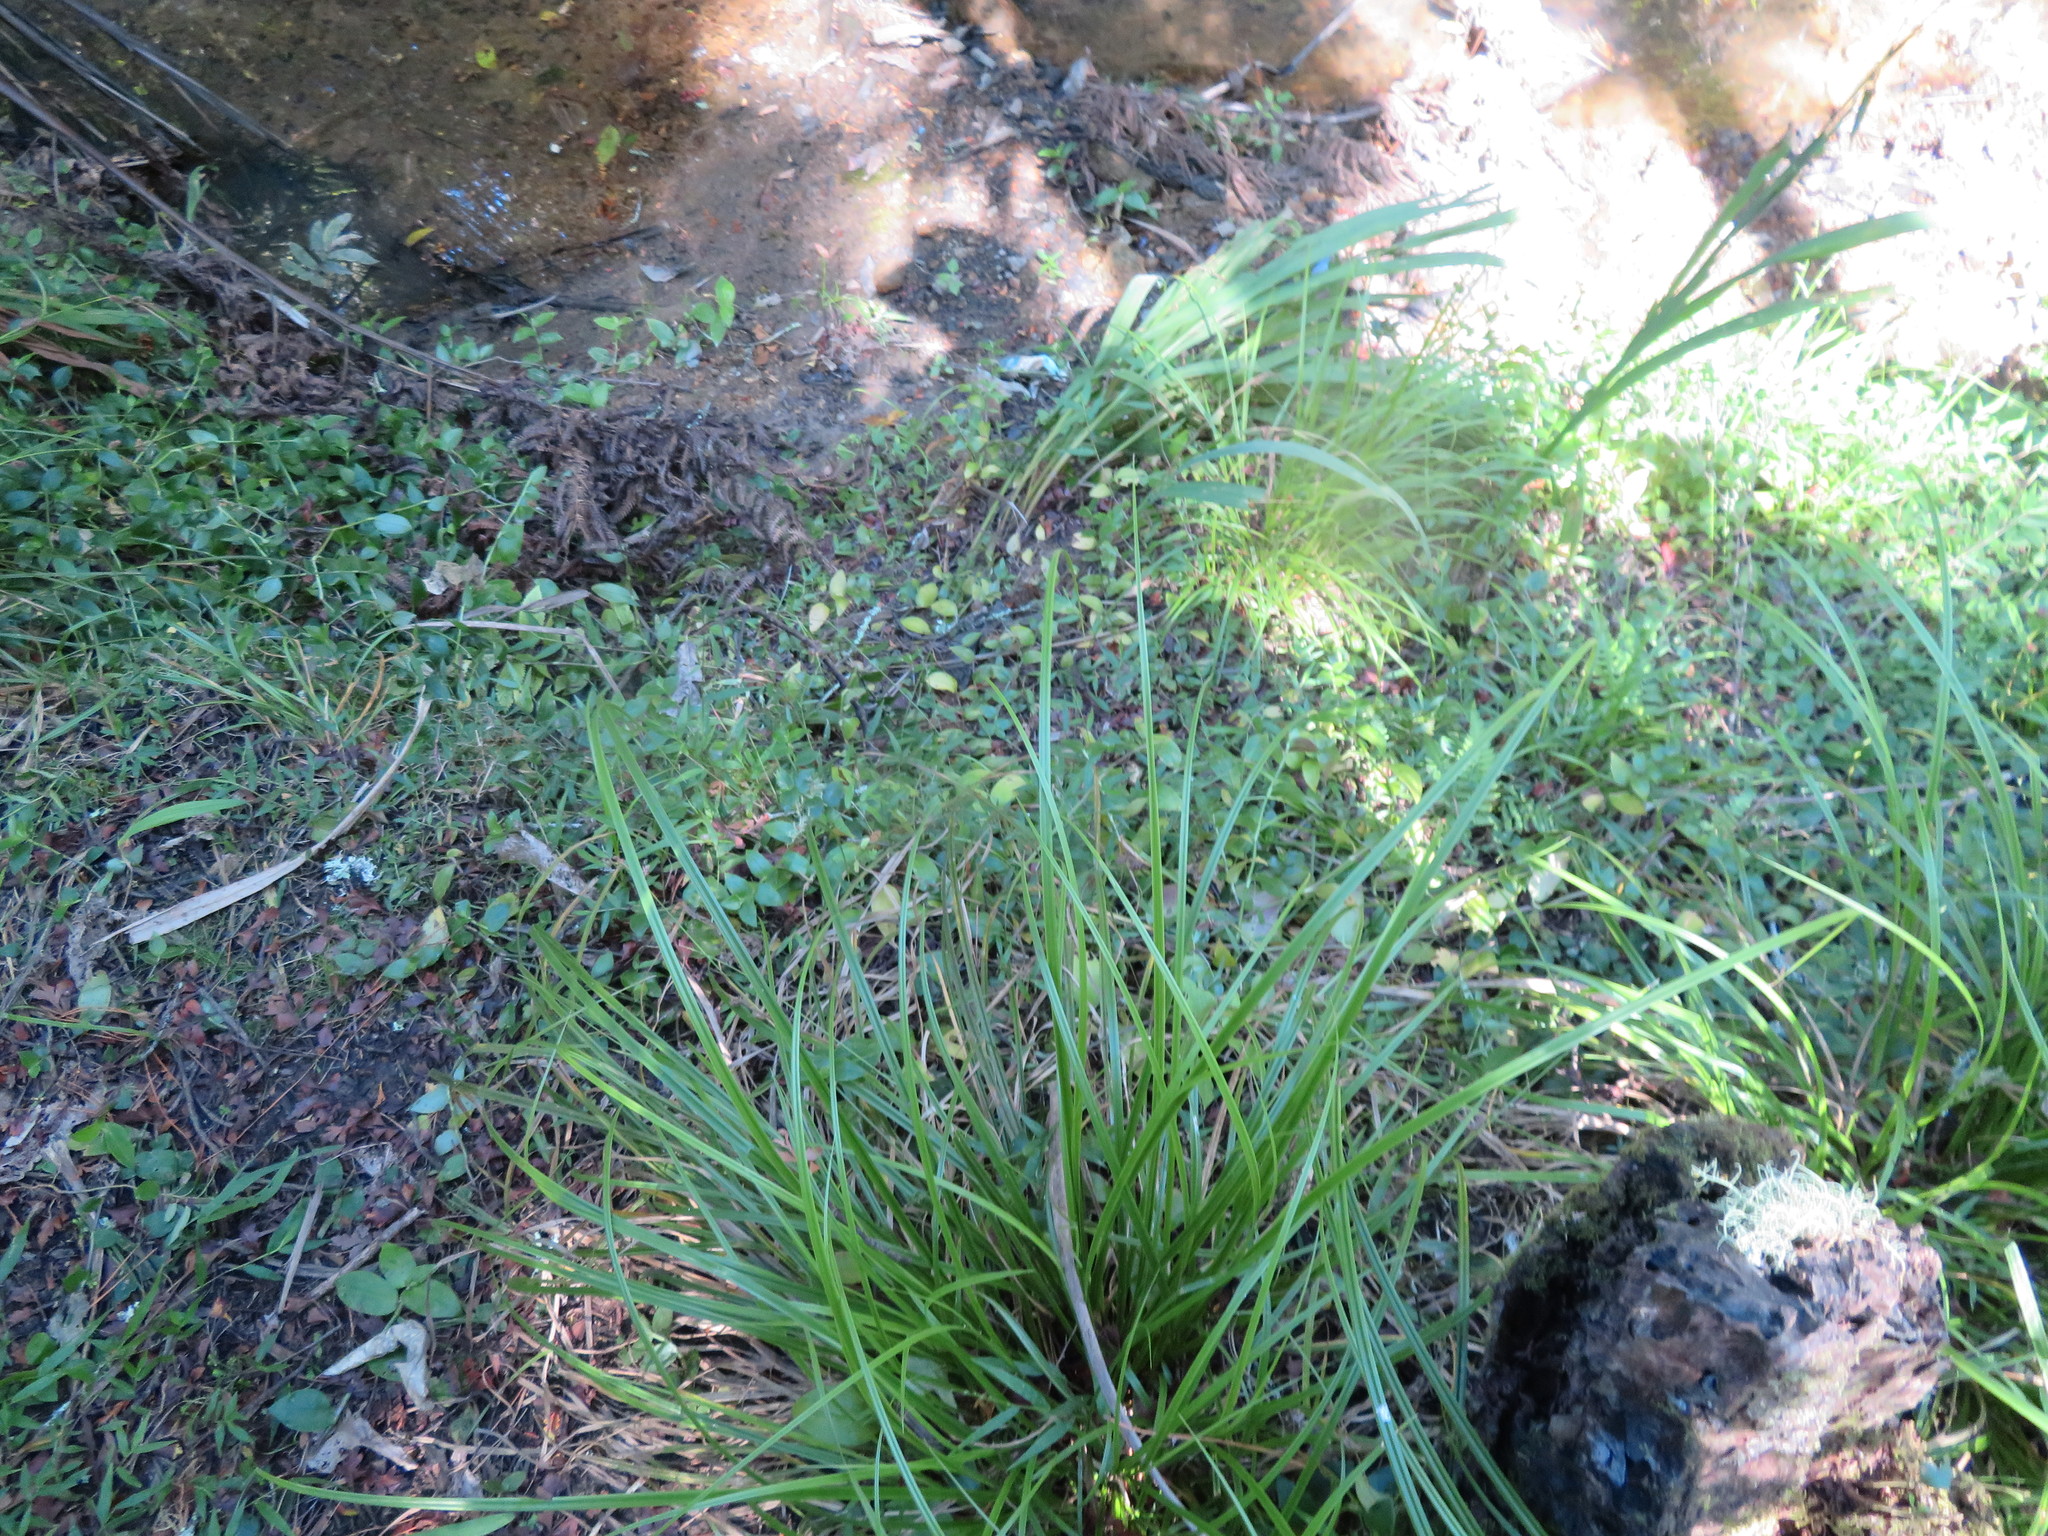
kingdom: Plantae
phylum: Tracheophyta
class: Liliopsida
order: Commelinales
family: Commelinaceae
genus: Tradescantia
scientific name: Tradescantia fluminensis
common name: Wandering-jew
